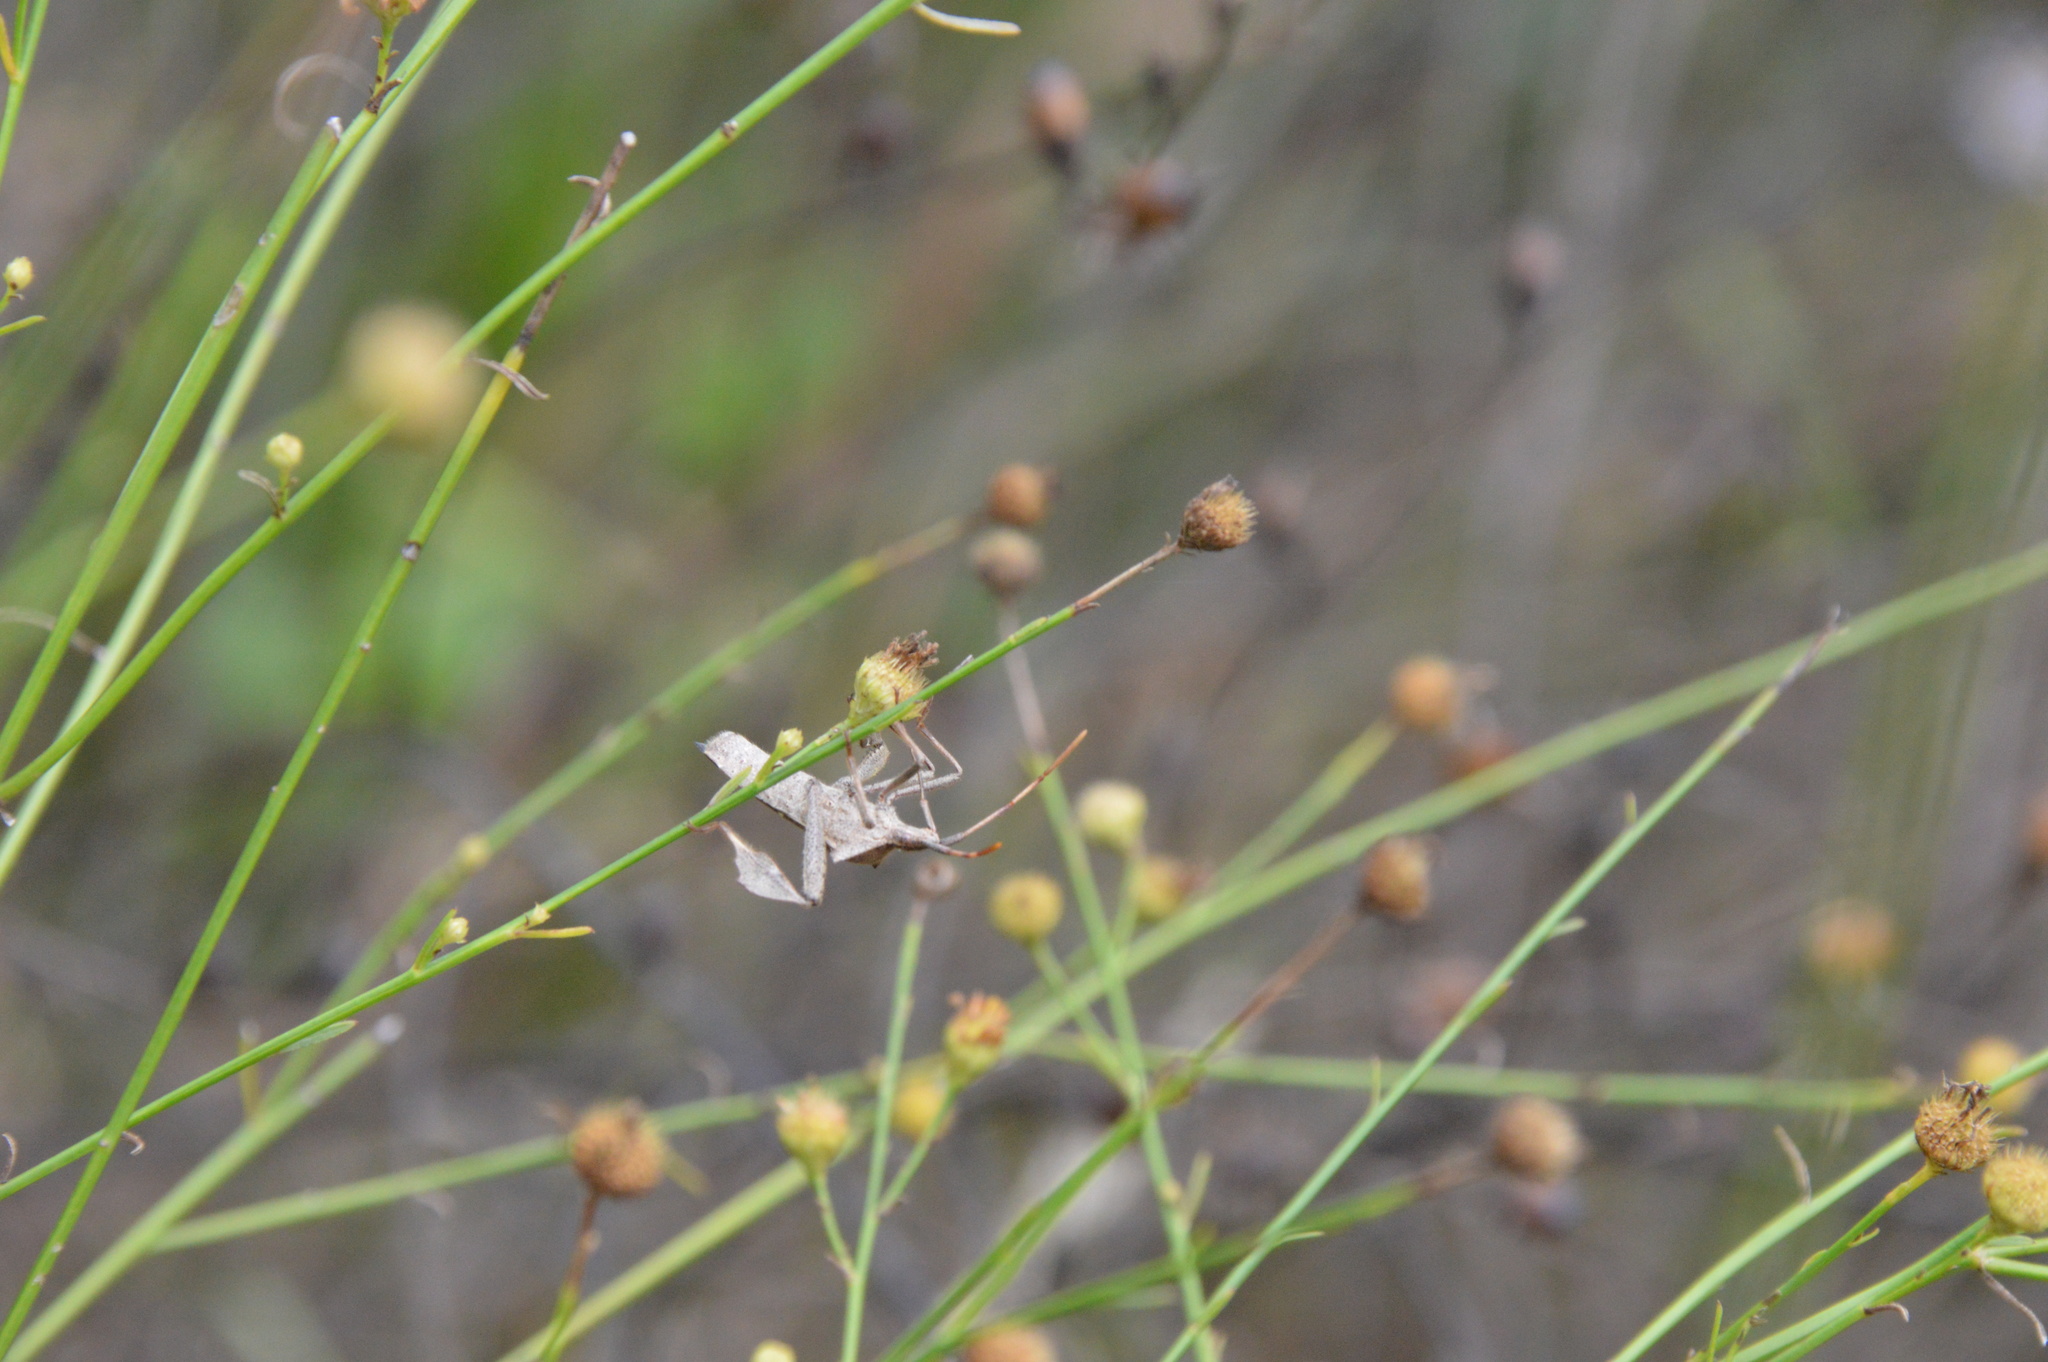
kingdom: Animalia
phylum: Arthropoda
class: Insecta
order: Hemiptera
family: Coreidae
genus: Leptoglossus
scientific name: Leptoglossus phyllopus
